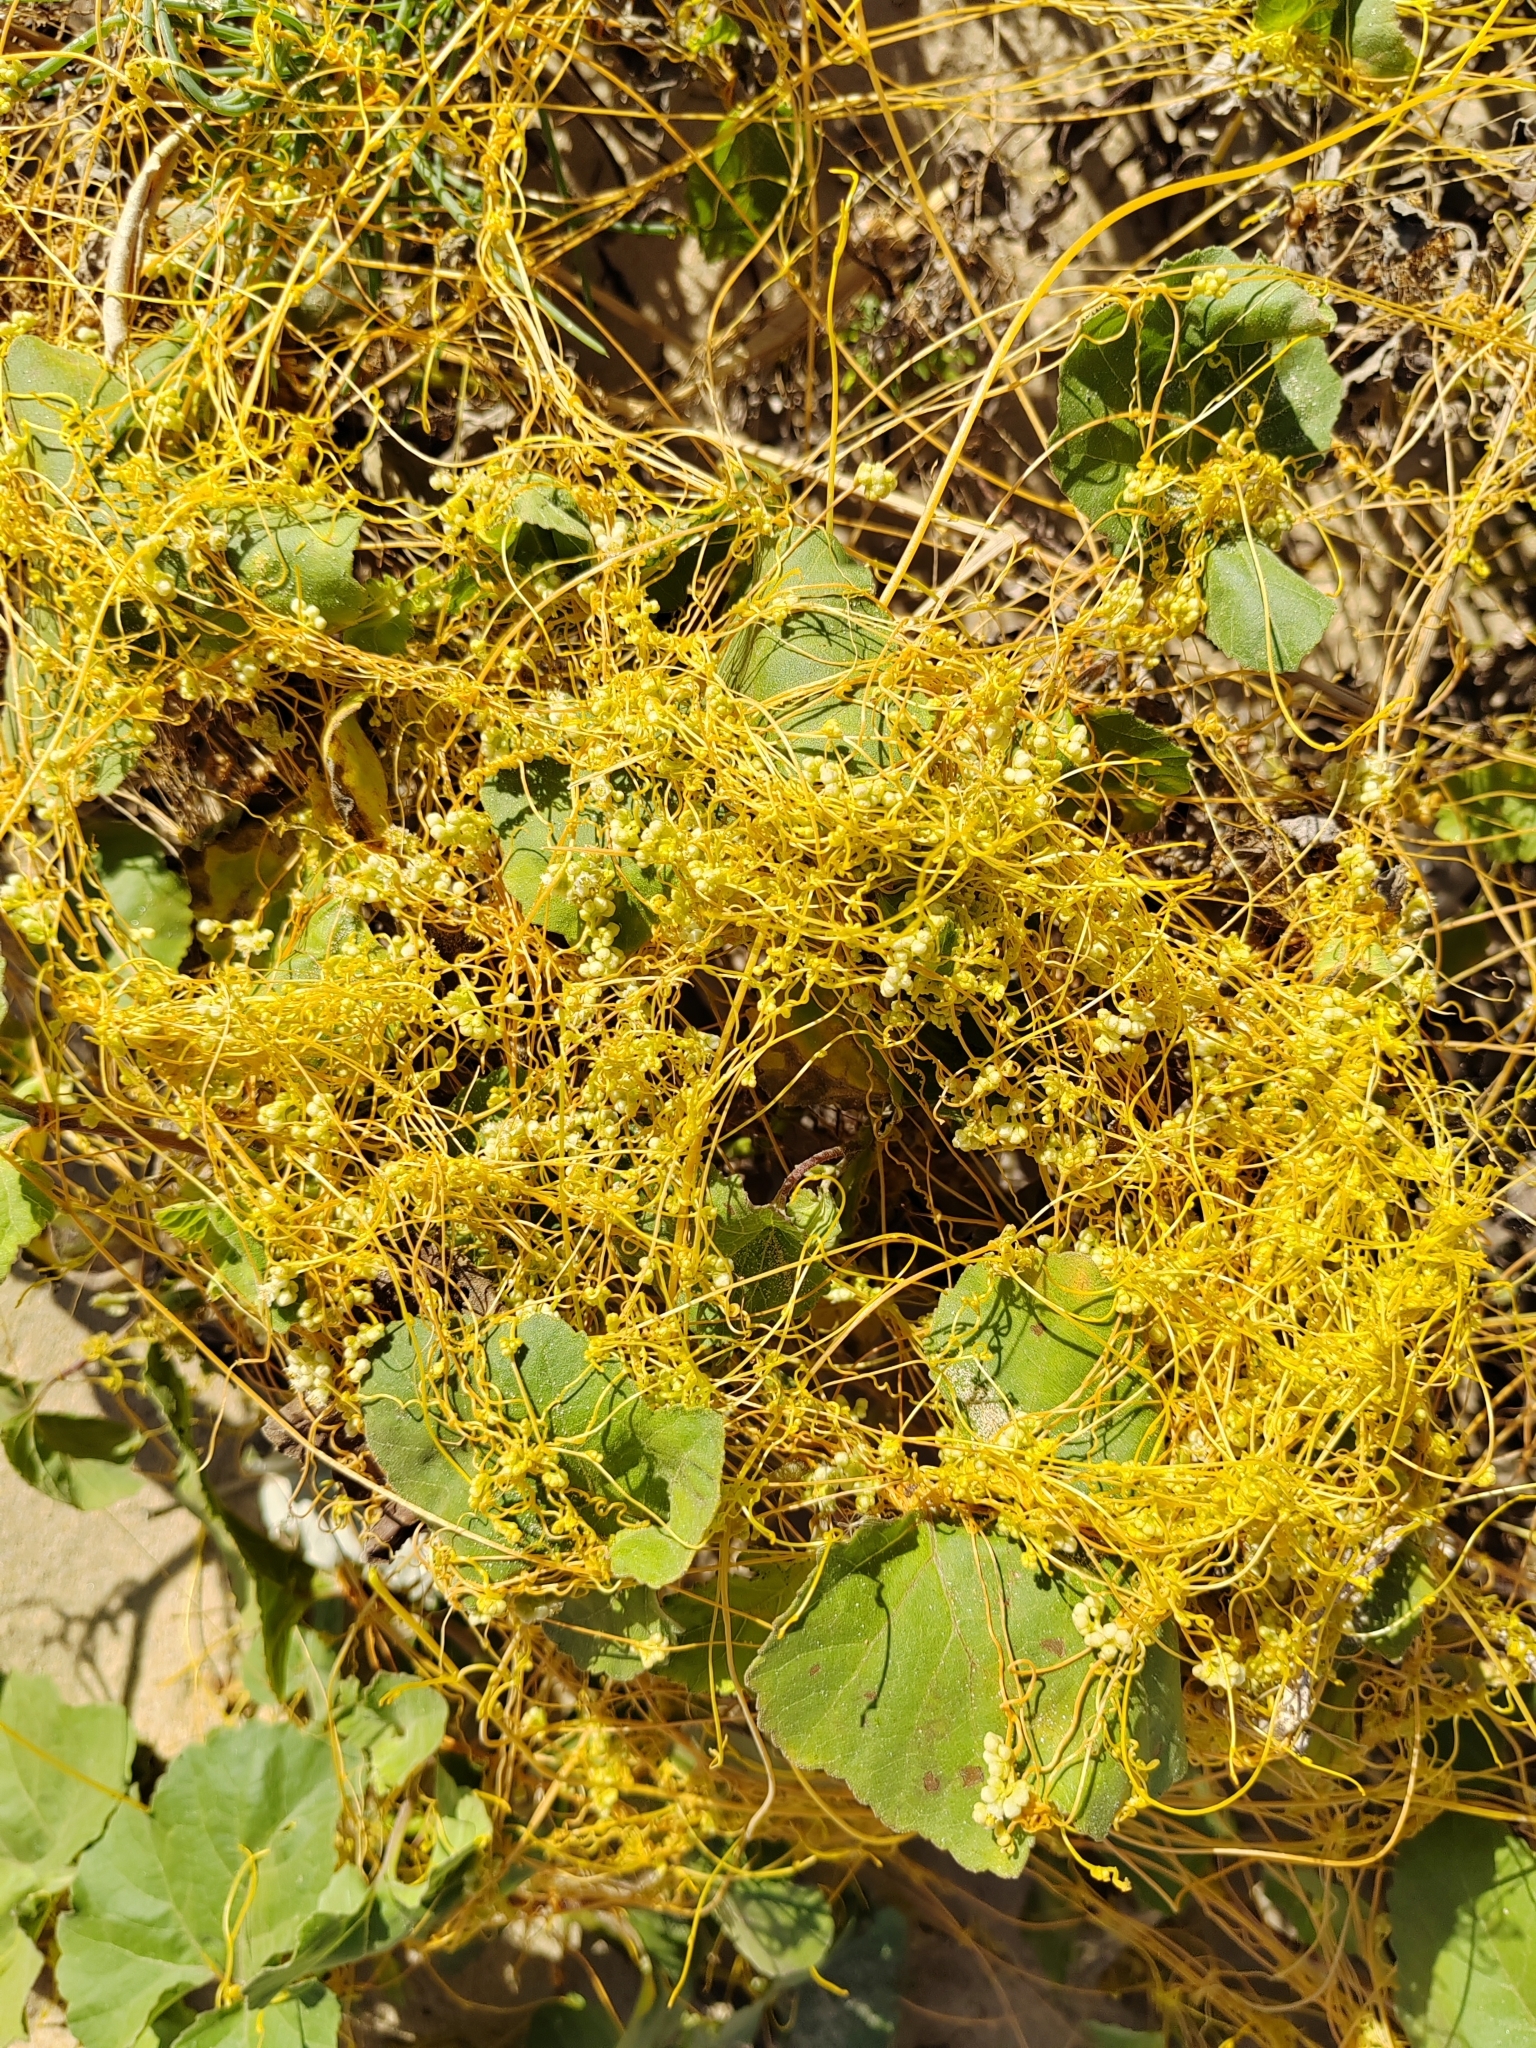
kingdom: Plantae
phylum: Tracheophyta
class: Magnoliopsida
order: Solanales
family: Convolvulaceae
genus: Cuscuta
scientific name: Cuscuta campestris
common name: Yellow dodder
